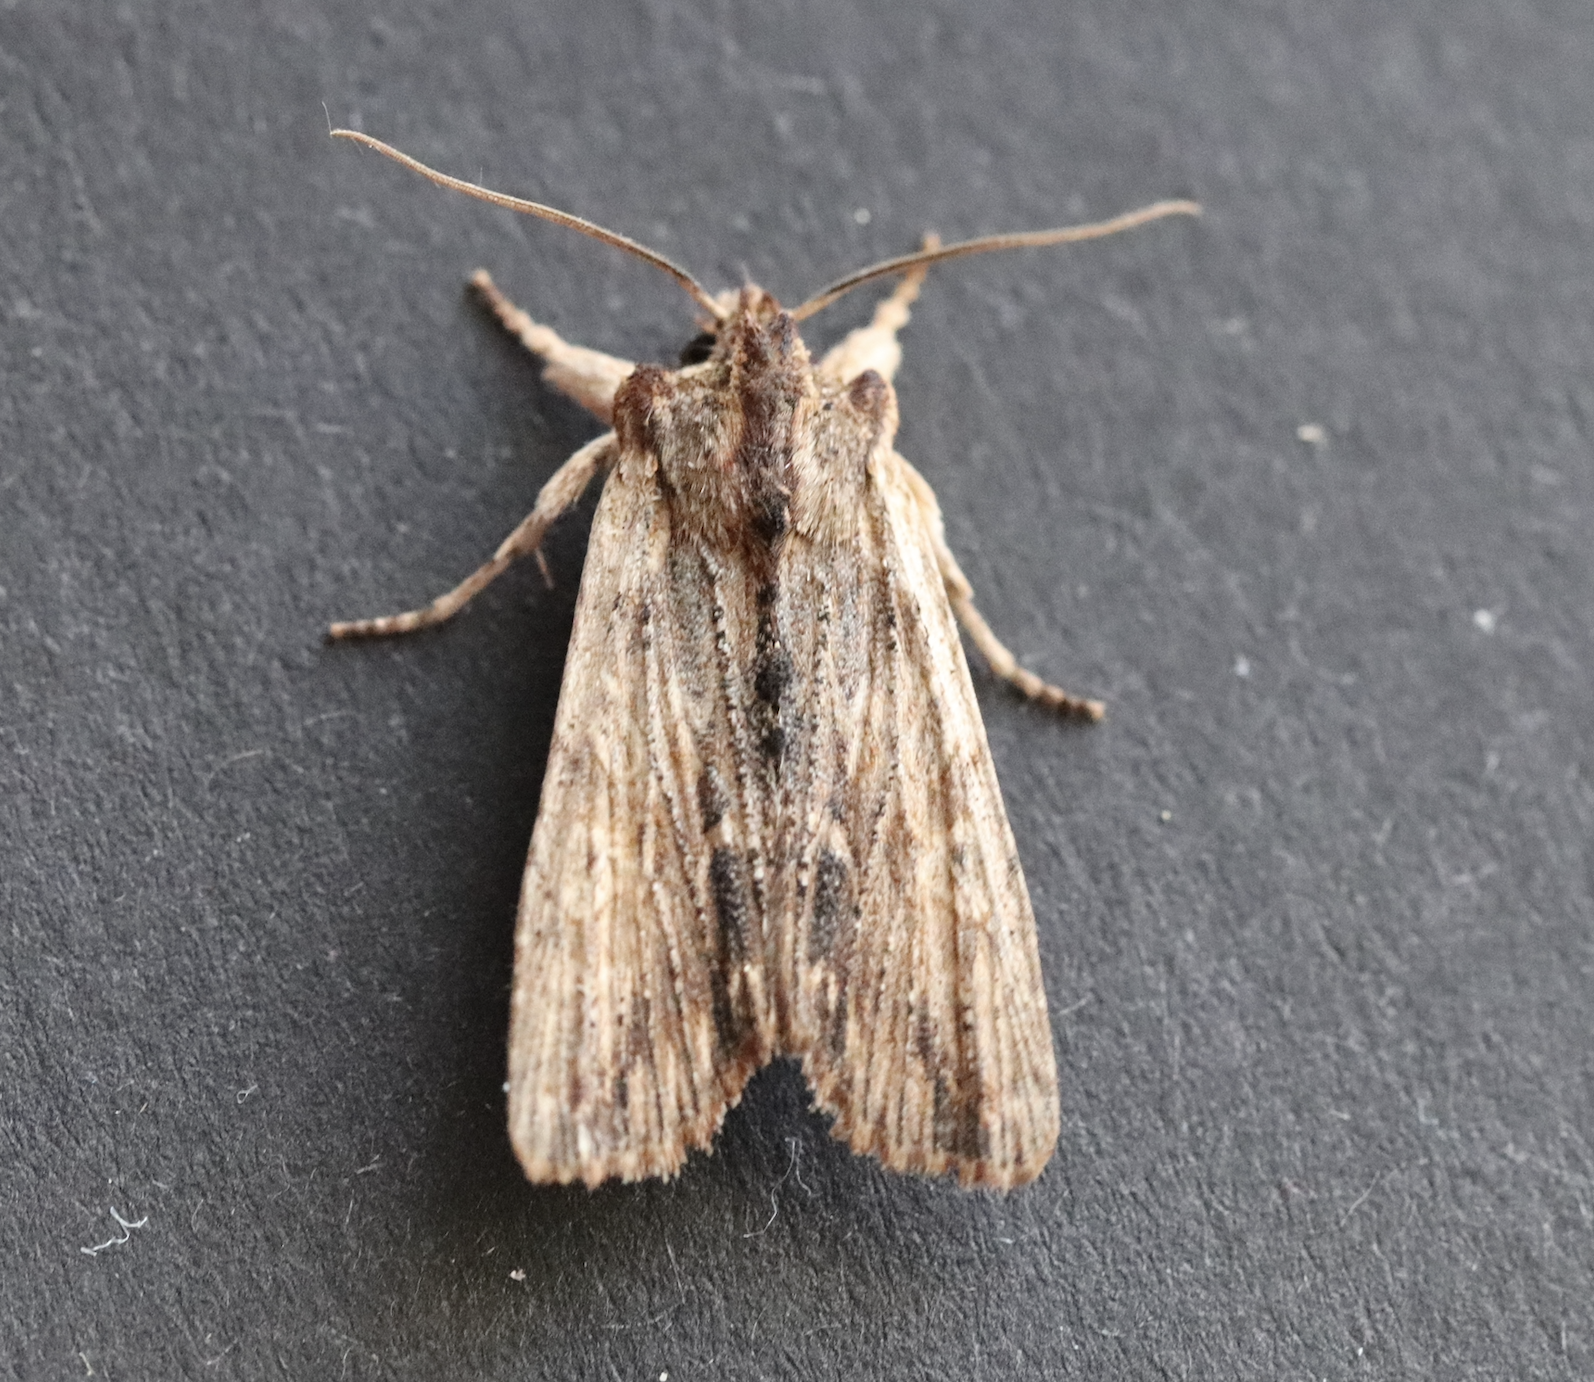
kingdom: Animalia
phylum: Arthropoda
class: Insecta
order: Lepidoptera
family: Noctuidae
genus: Lithophane
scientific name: Lithophane semibrunnea
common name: Tawny pinion
